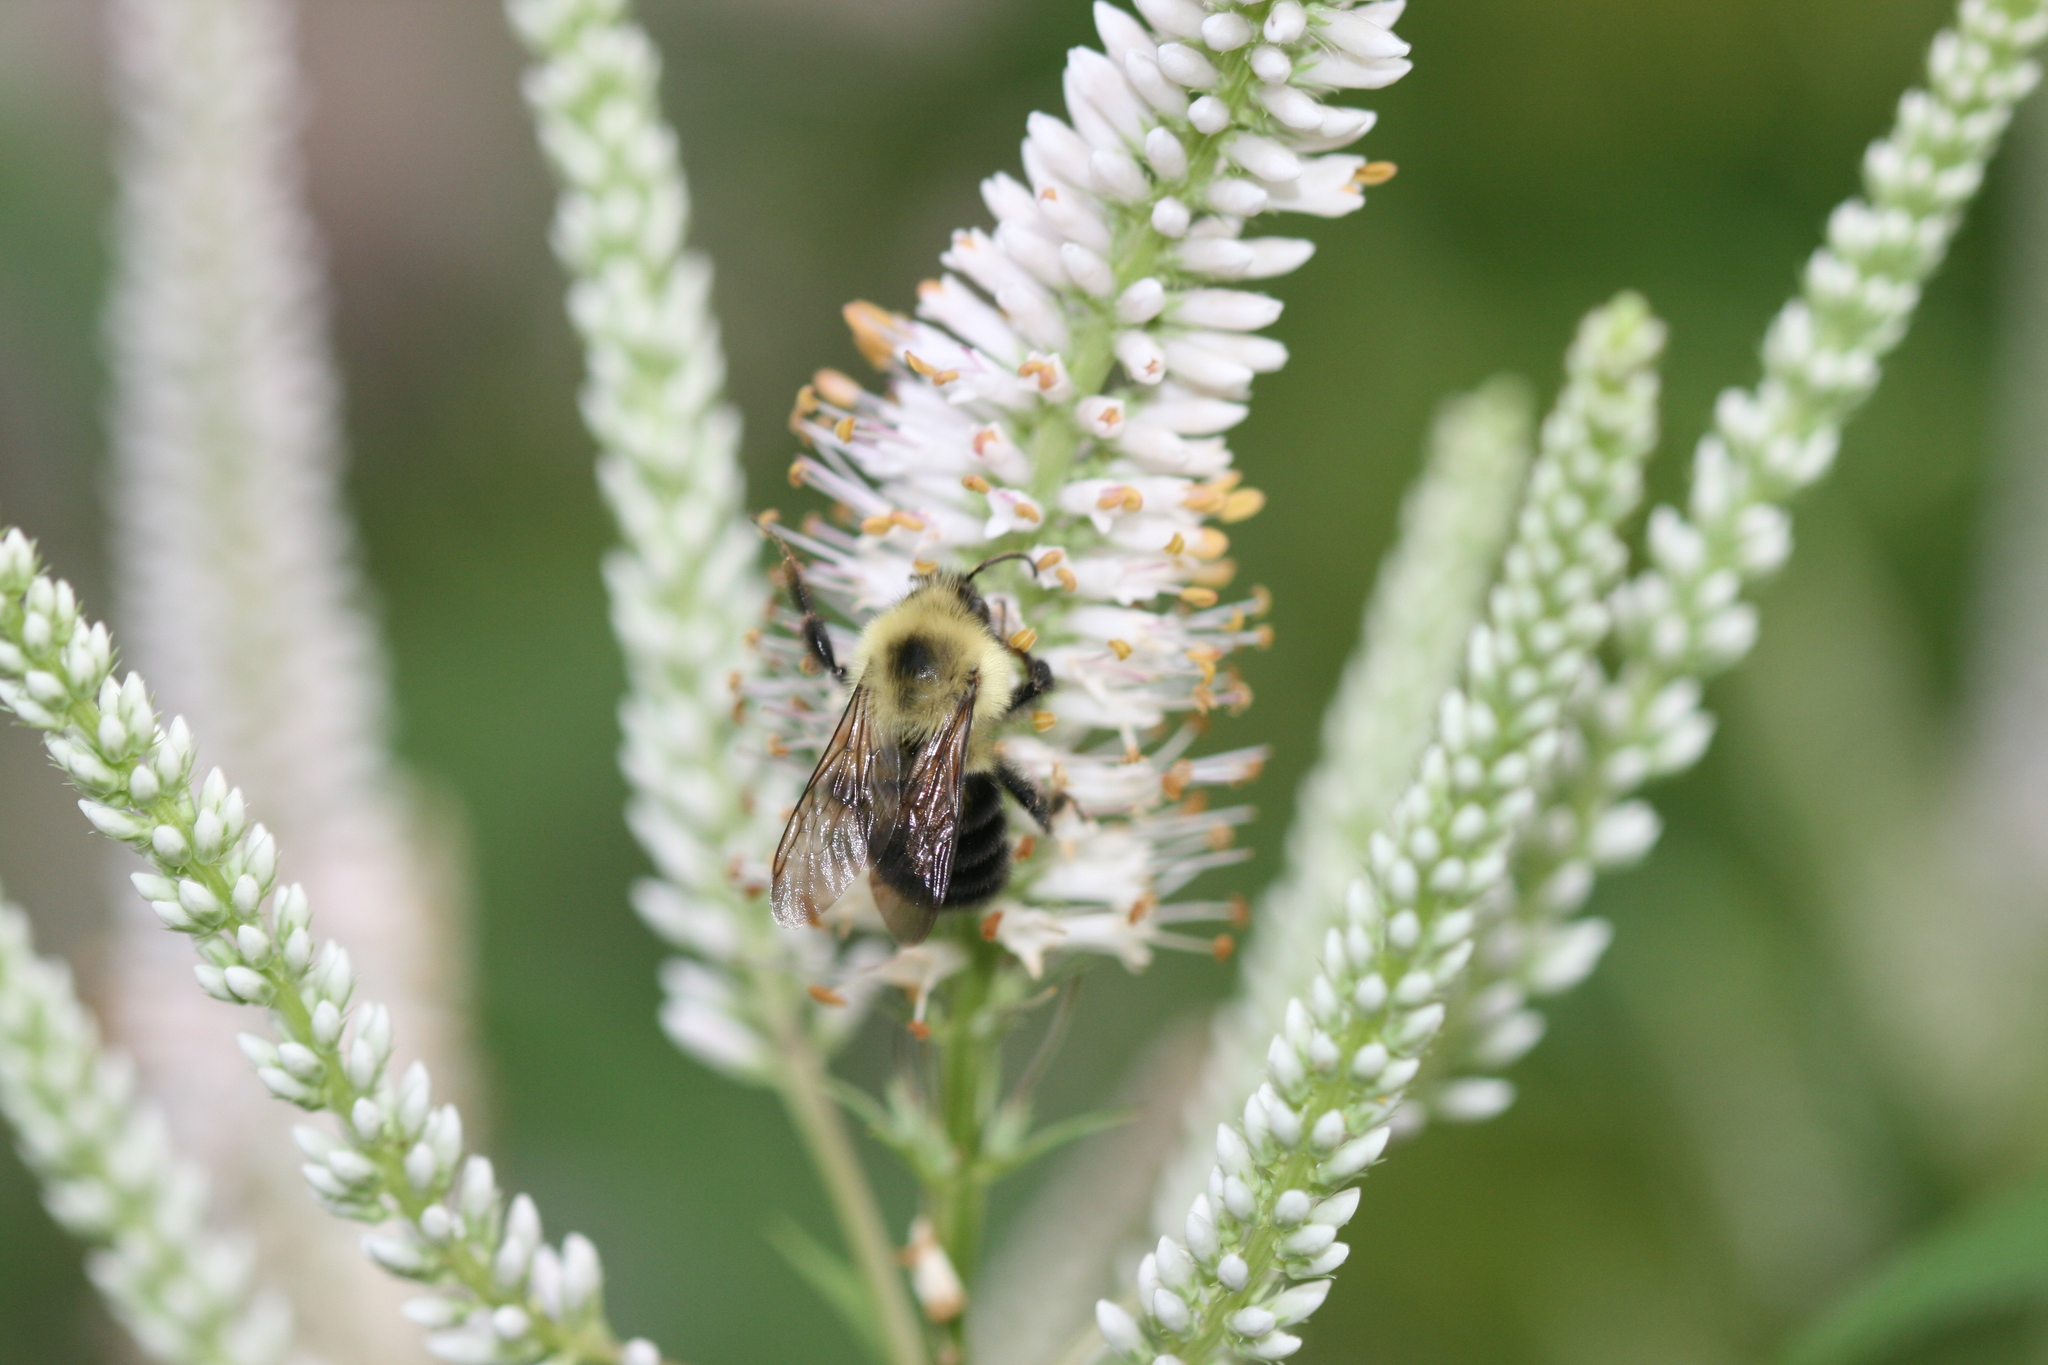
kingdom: Animalia
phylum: Arthropoda
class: Insecta
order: Hymenoptera
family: Apidae
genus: Bombus
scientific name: Bombus bimaculatus
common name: Two-spotted bumble bee
